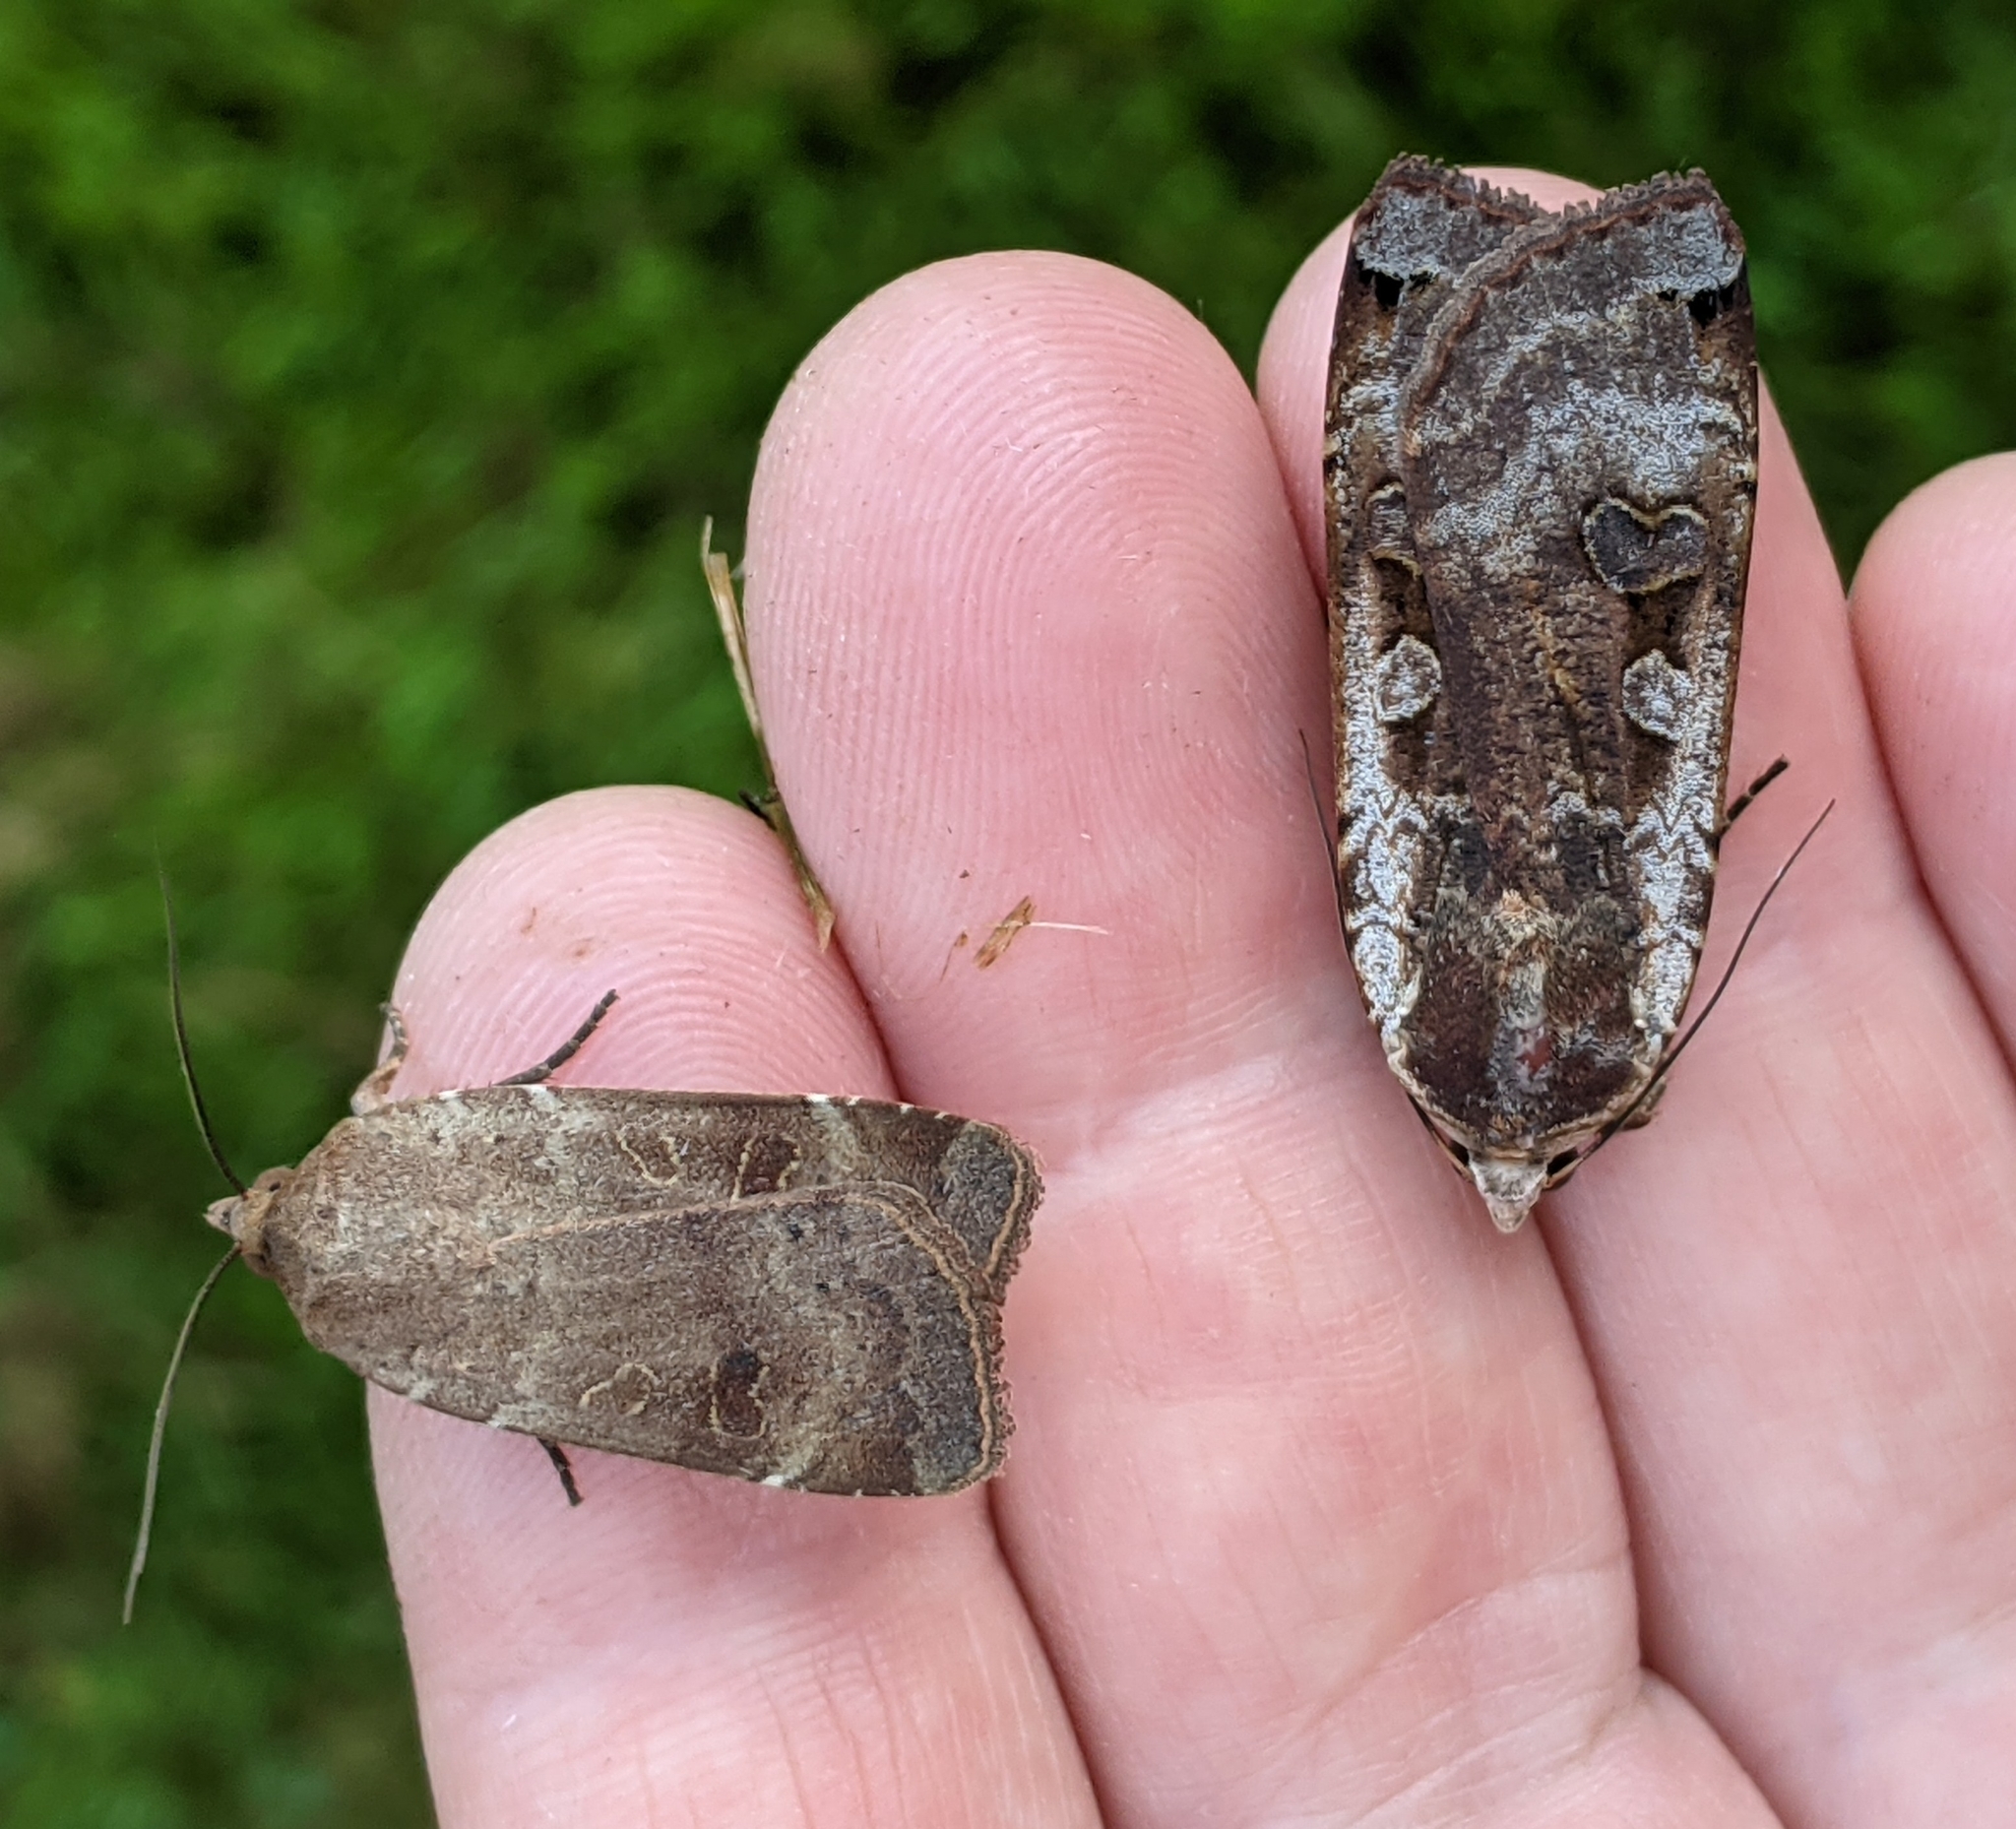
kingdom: Animalia
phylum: Arthropoda
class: Insecta
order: Lepidoptera
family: Noctuidae
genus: Noctua
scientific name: Noctua comes
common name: Lesser yellow underwing
